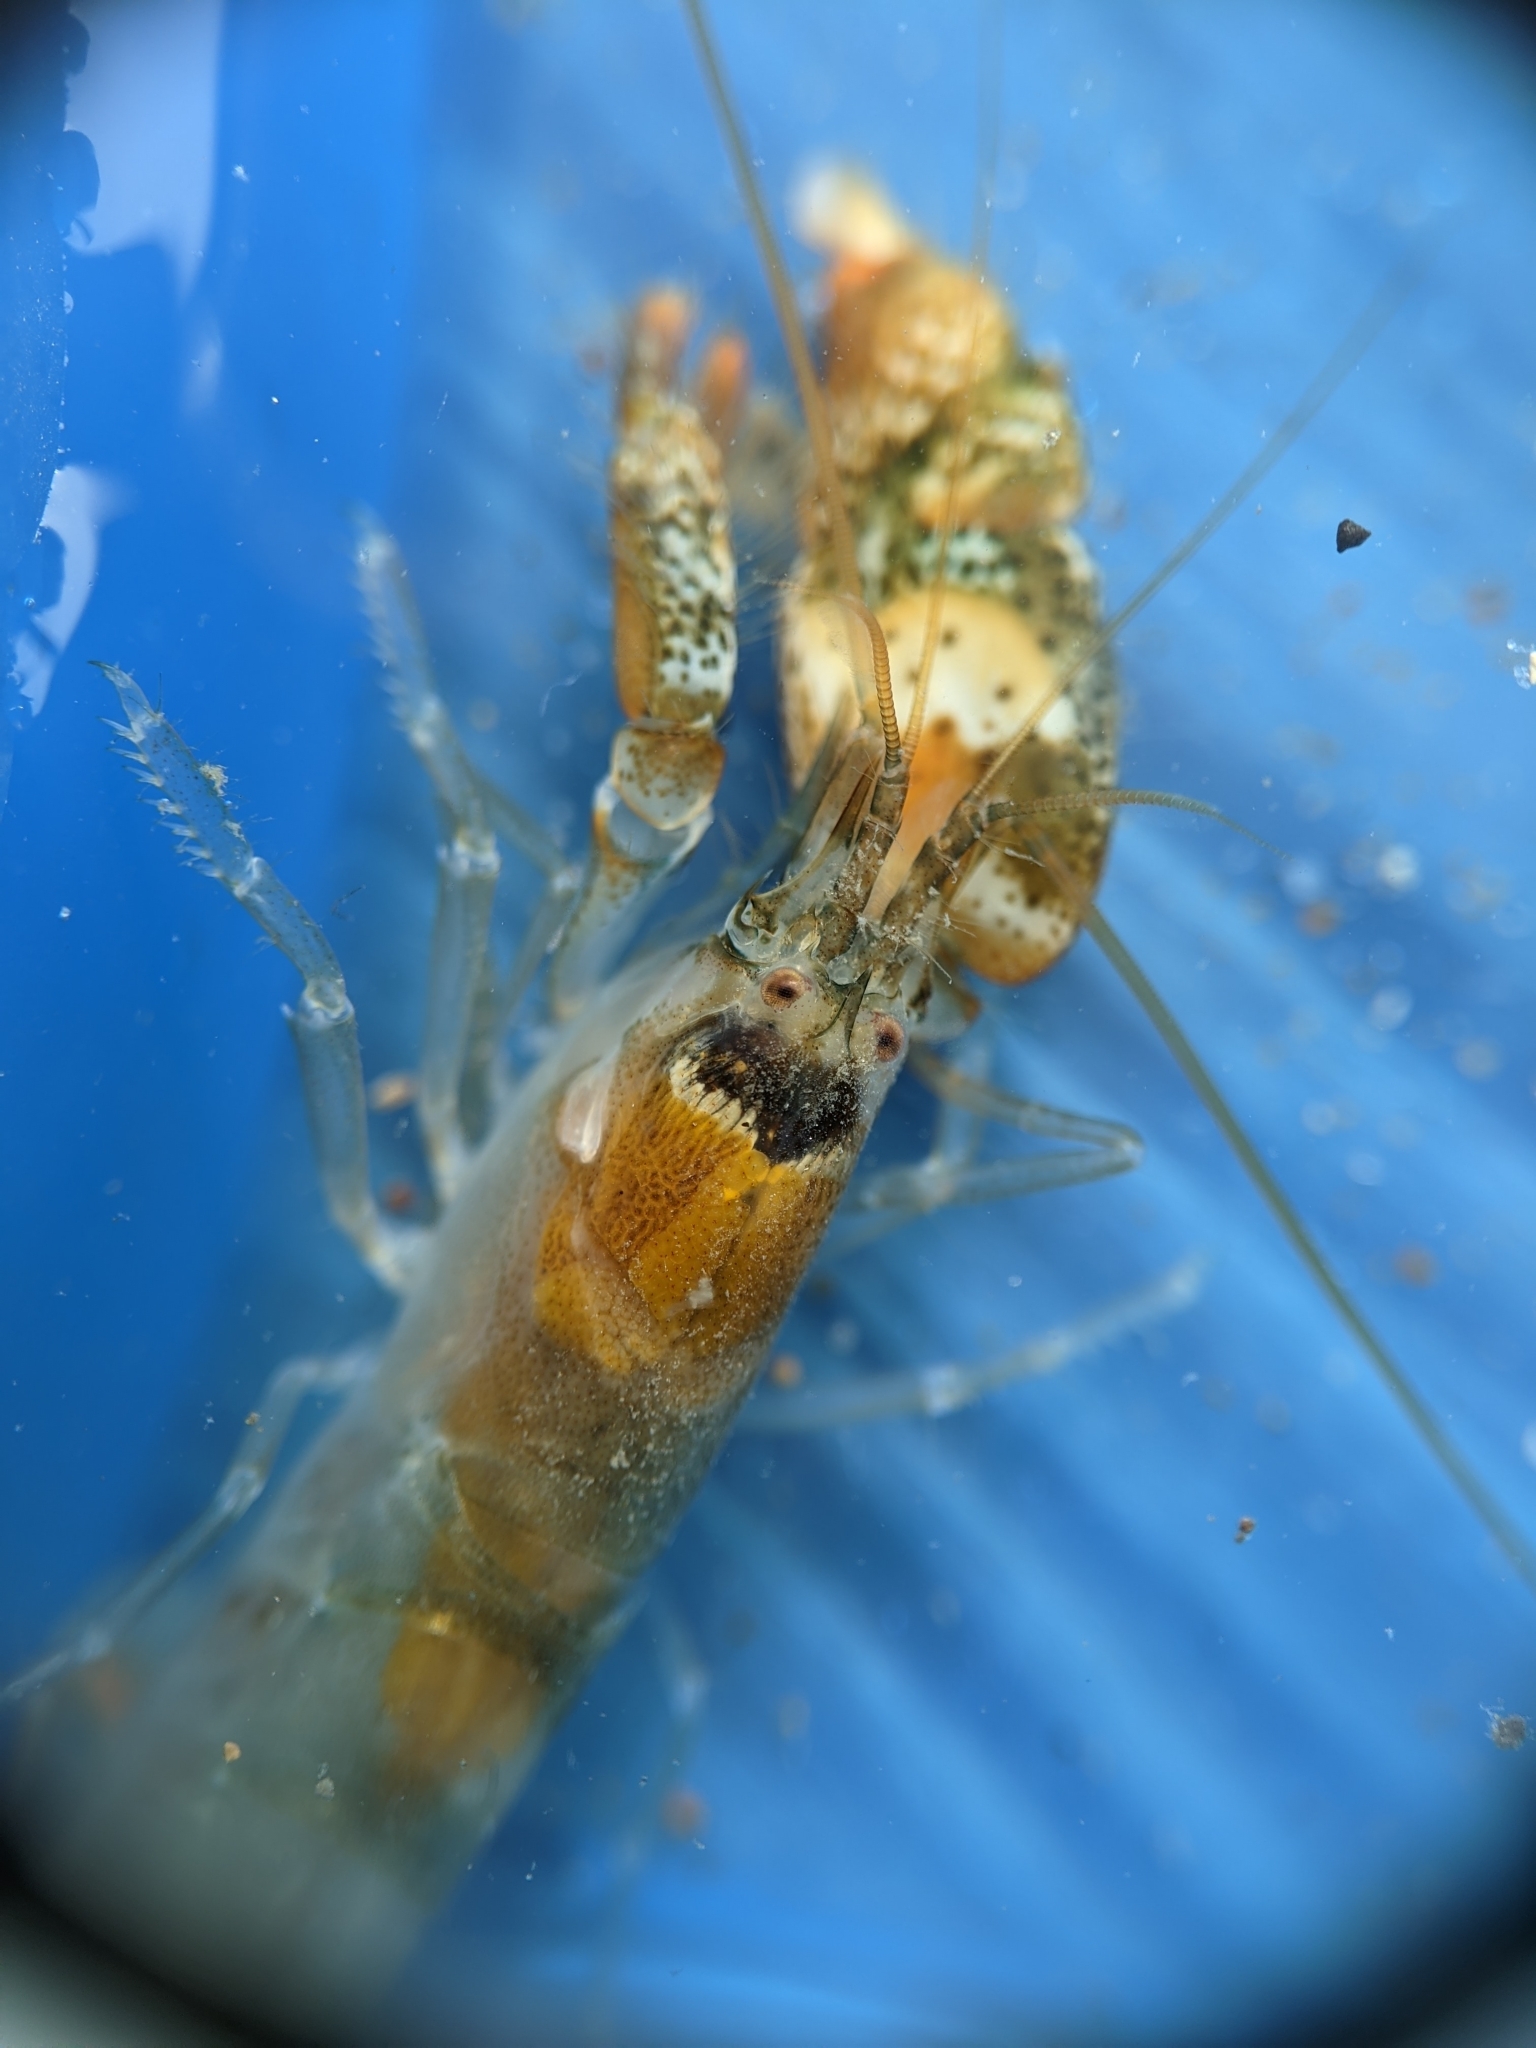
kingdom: Animalia
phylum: Arthropoda
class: Malacostraca
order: Decapoda
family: Alpheidae
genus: Alpheus
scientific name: Alpheus clamator
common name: Twistclaw pistol shrimp
